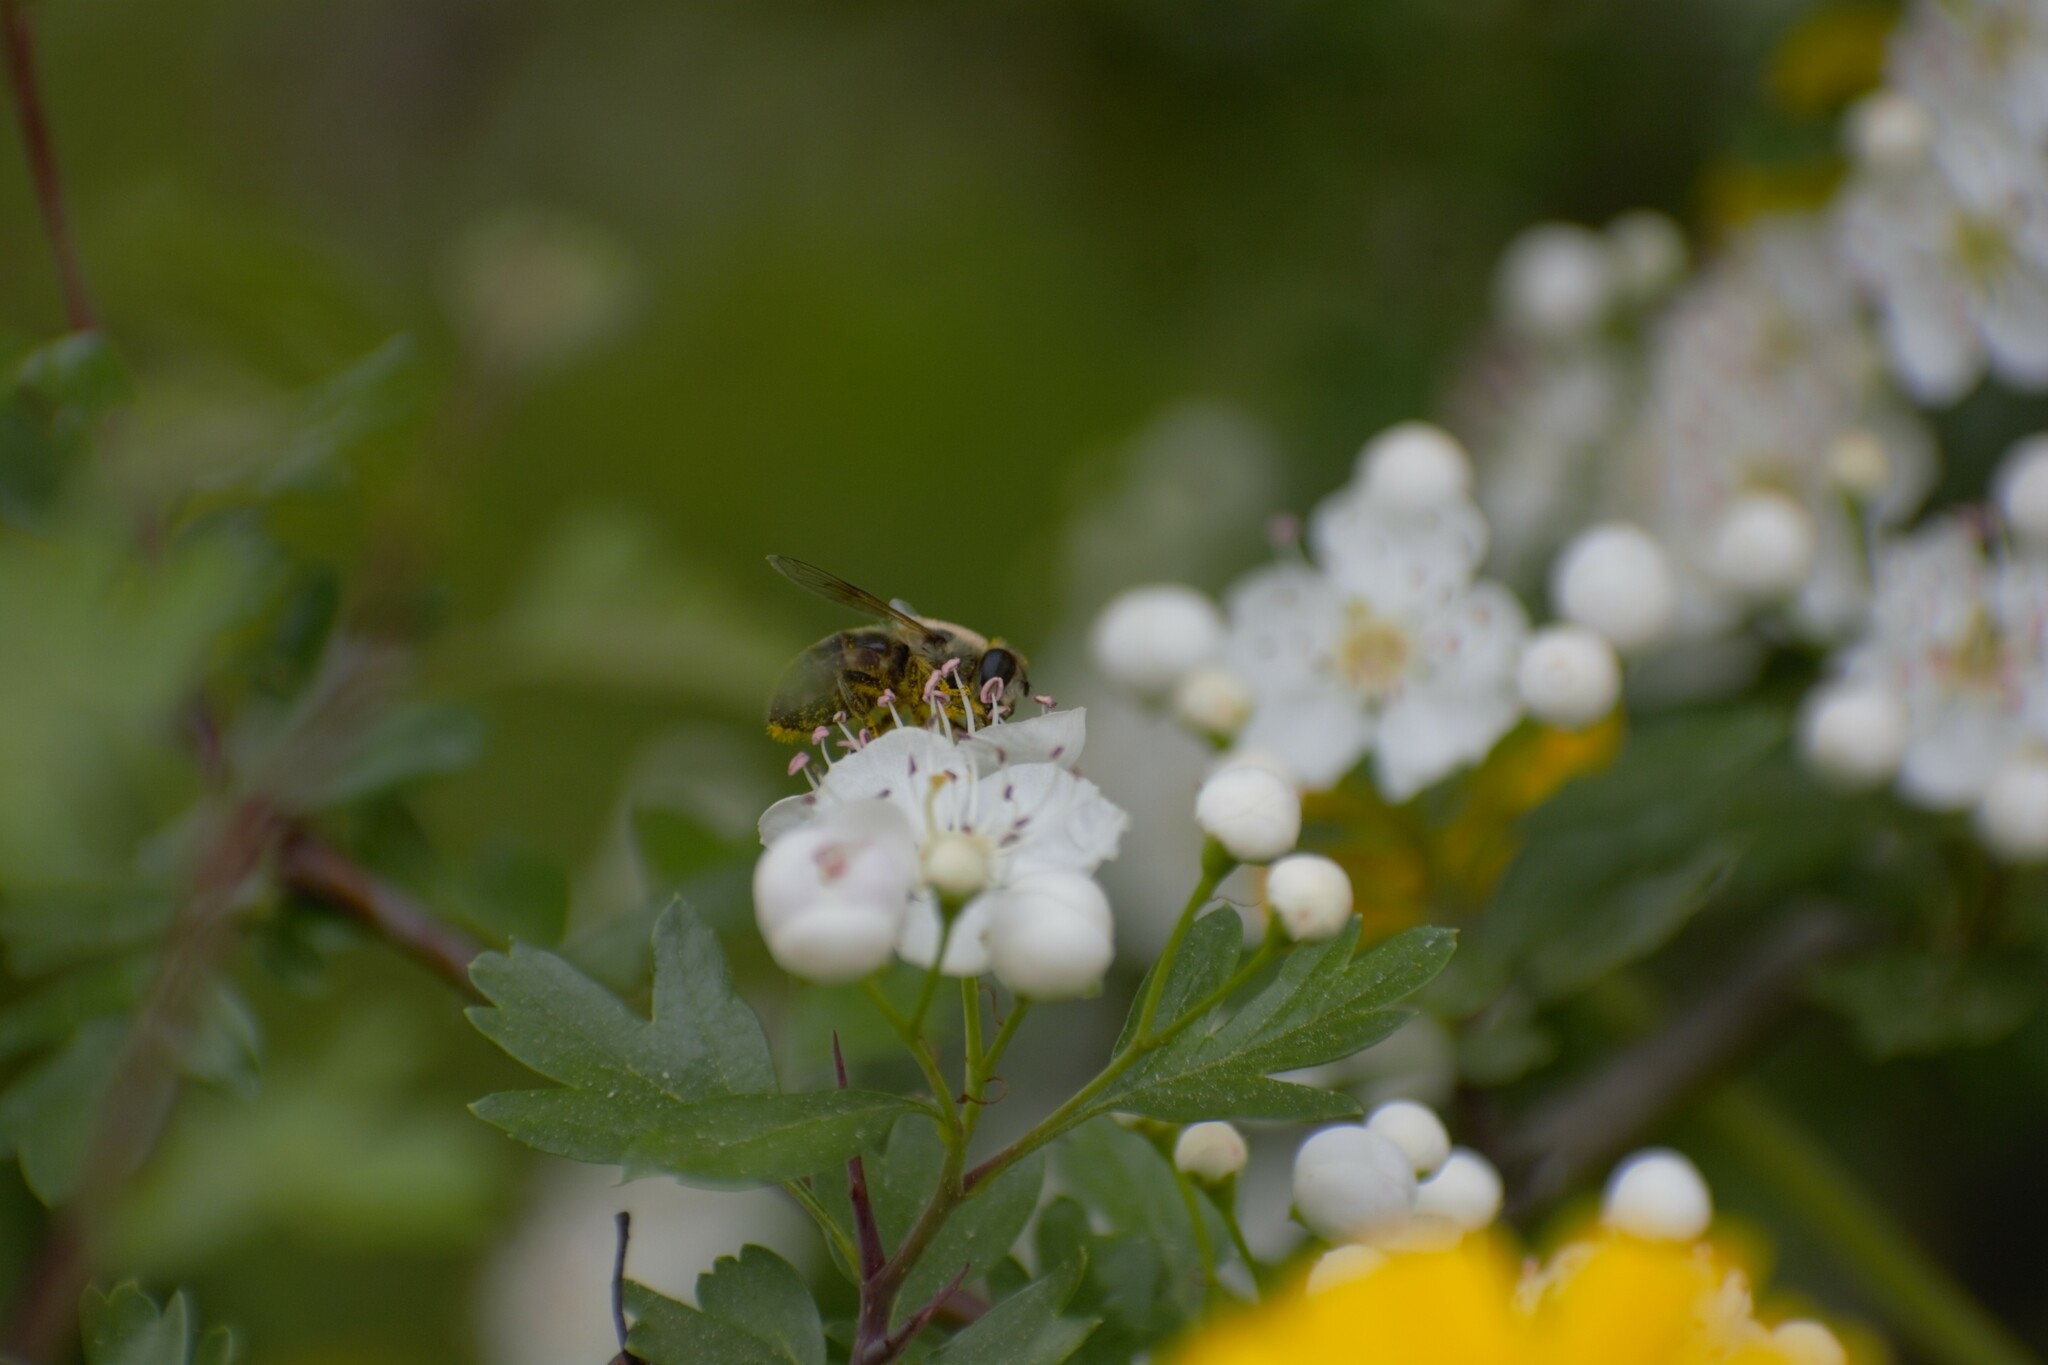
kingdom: Animalia
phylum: Arthropoda
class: Insecta
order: Diptera
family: Syrphidae
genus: Eristalis
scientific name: Eristalis tenax
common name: Drone fly
